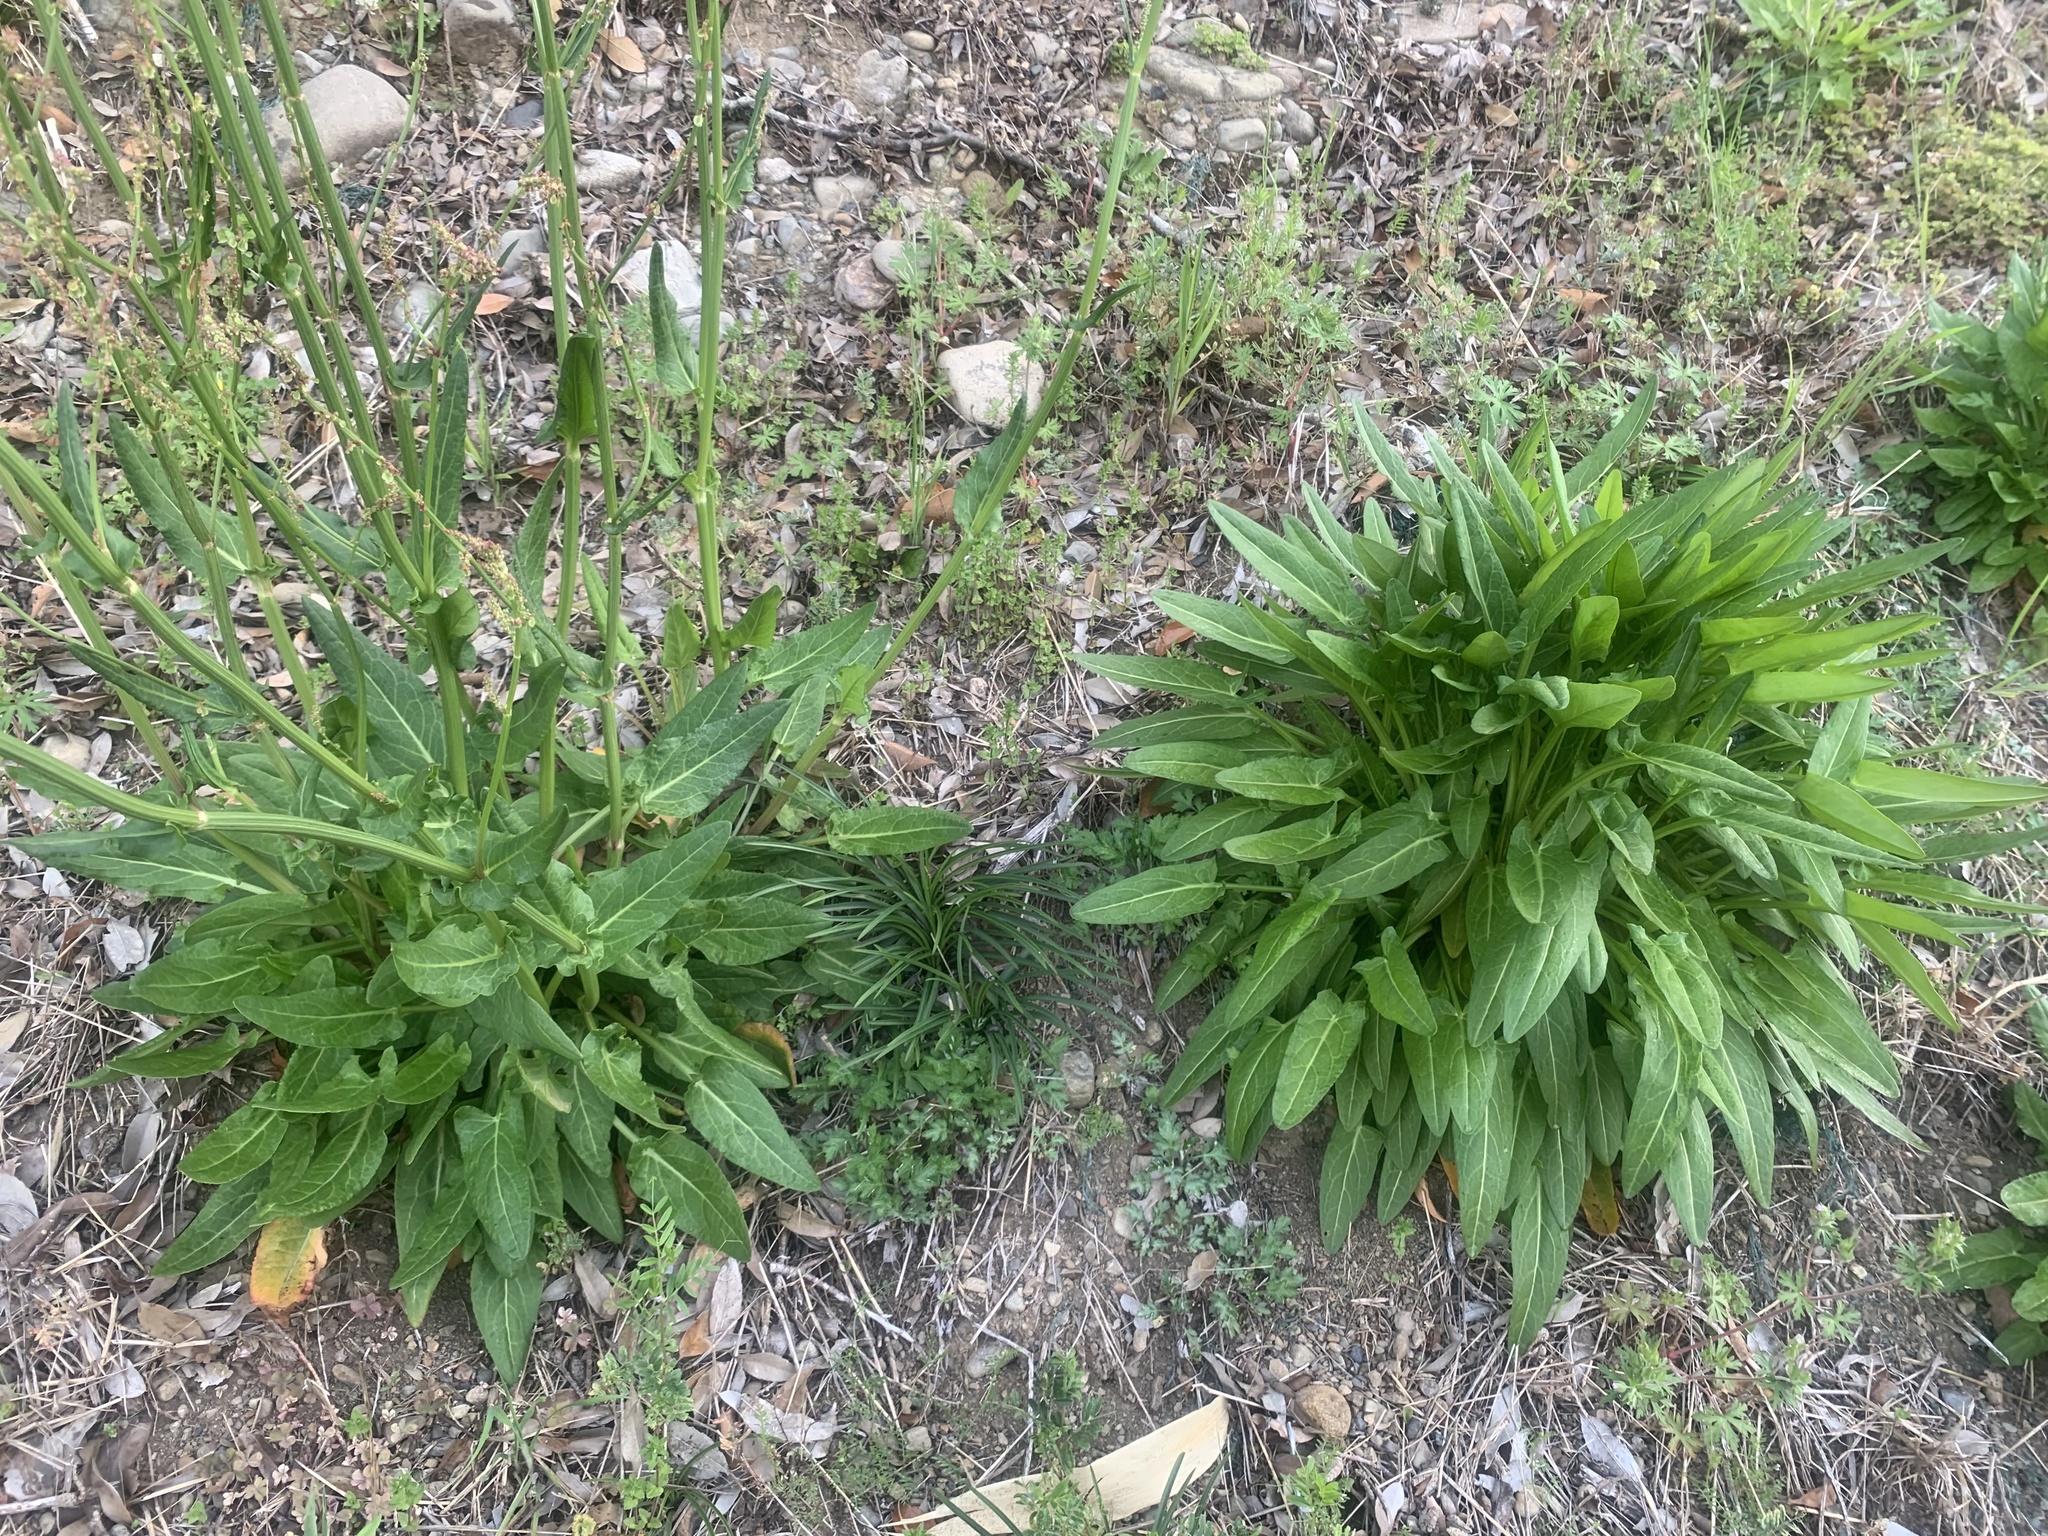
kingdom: Plantae
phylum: Tracheophyta
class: Magnoliopsida
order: Caryophyllales
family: Polygonaceae
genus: Rumex
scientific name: Rumex acetosa
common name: Garden sorrel
